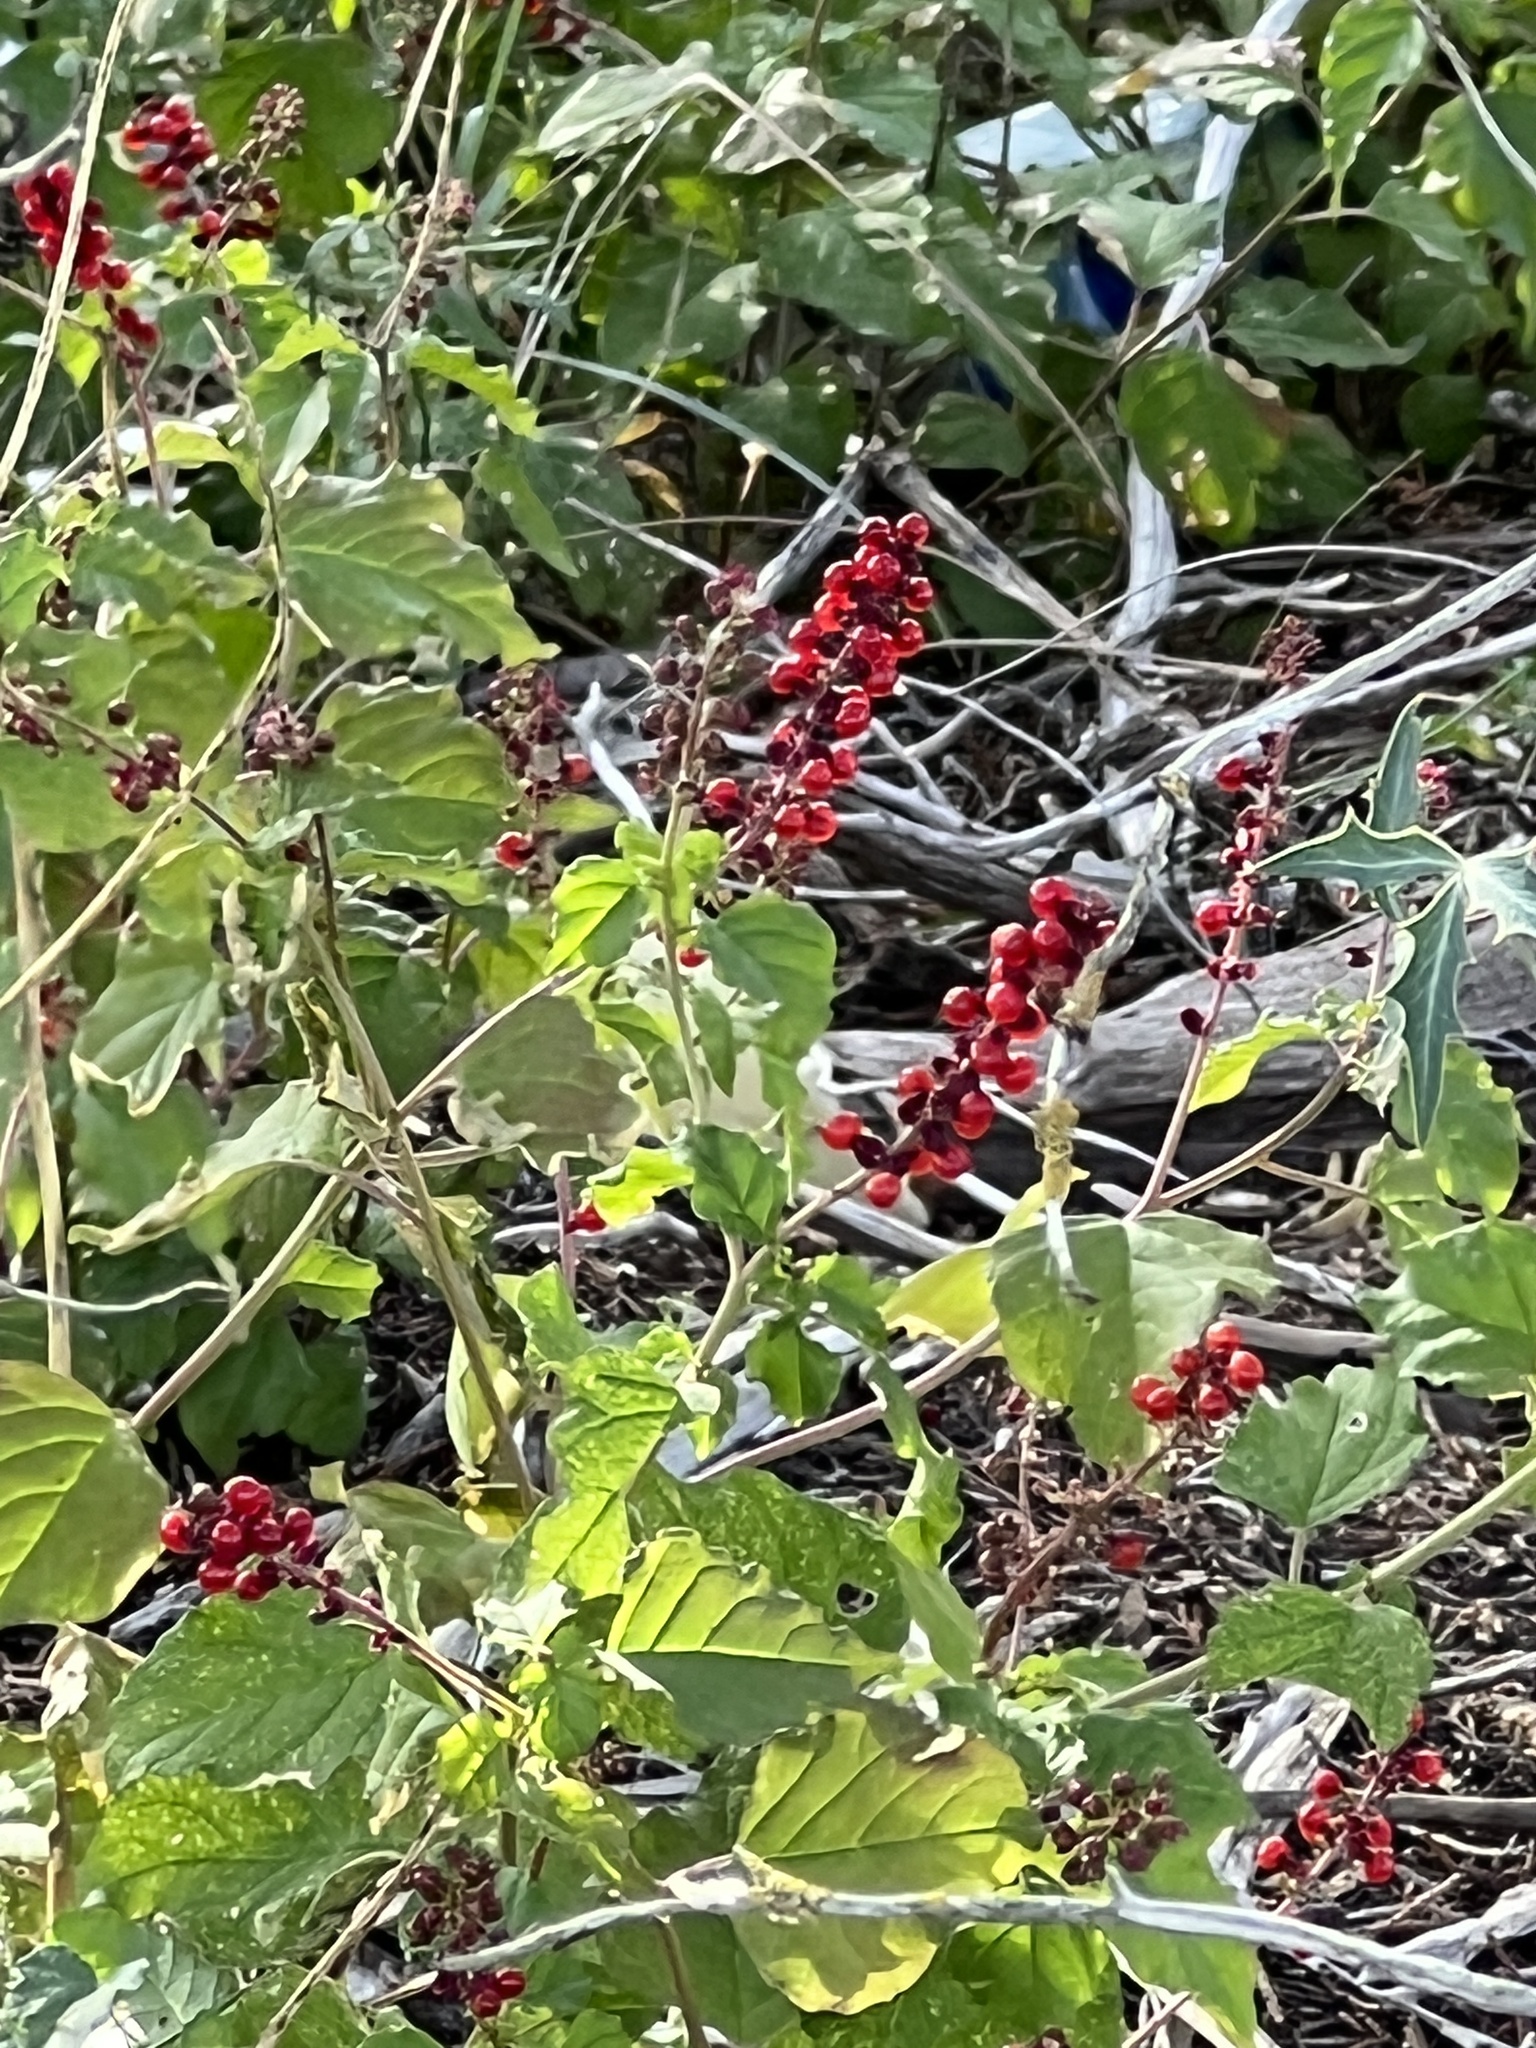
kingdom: Plantae
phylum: Tracheophyta
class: Magnoliopsida
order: Caryophyllales
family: Phytolaccaceae
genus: Rivina
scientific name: Rivina humilis
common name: Rougeplant
